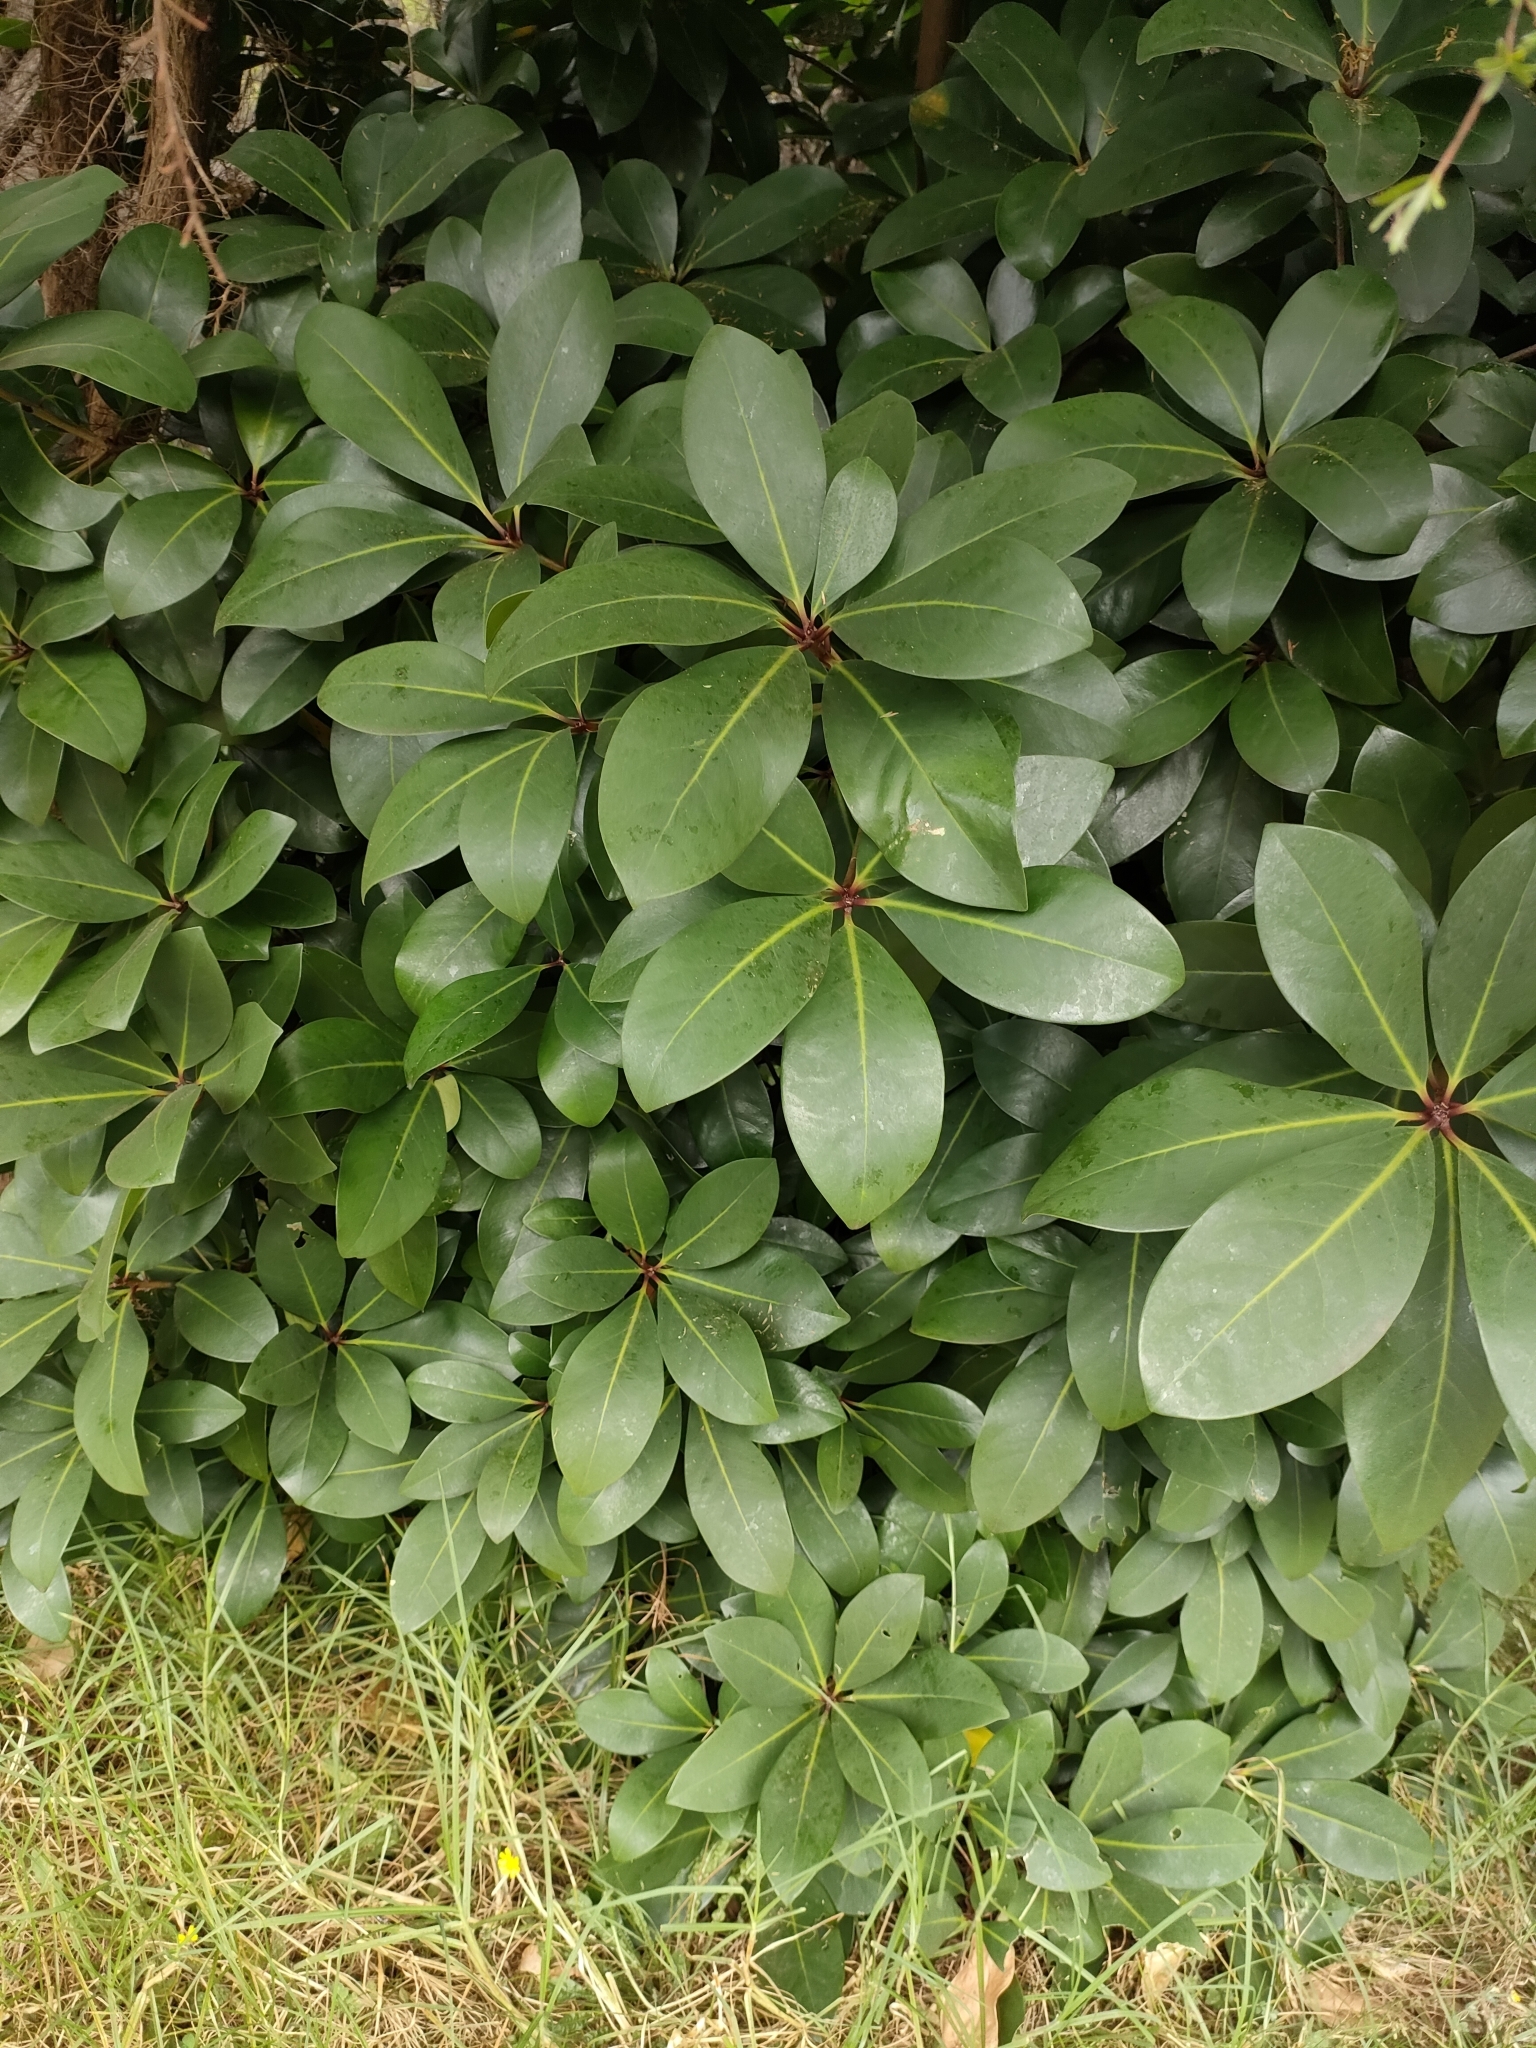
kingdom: Plantae
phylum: Tracheophyta
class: Magnoliopsida
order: Cucurbitales
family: Corynocarpaceae
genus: Corynocarpus
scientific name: Corynocarpus laevigatus
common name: New zealand laurel
